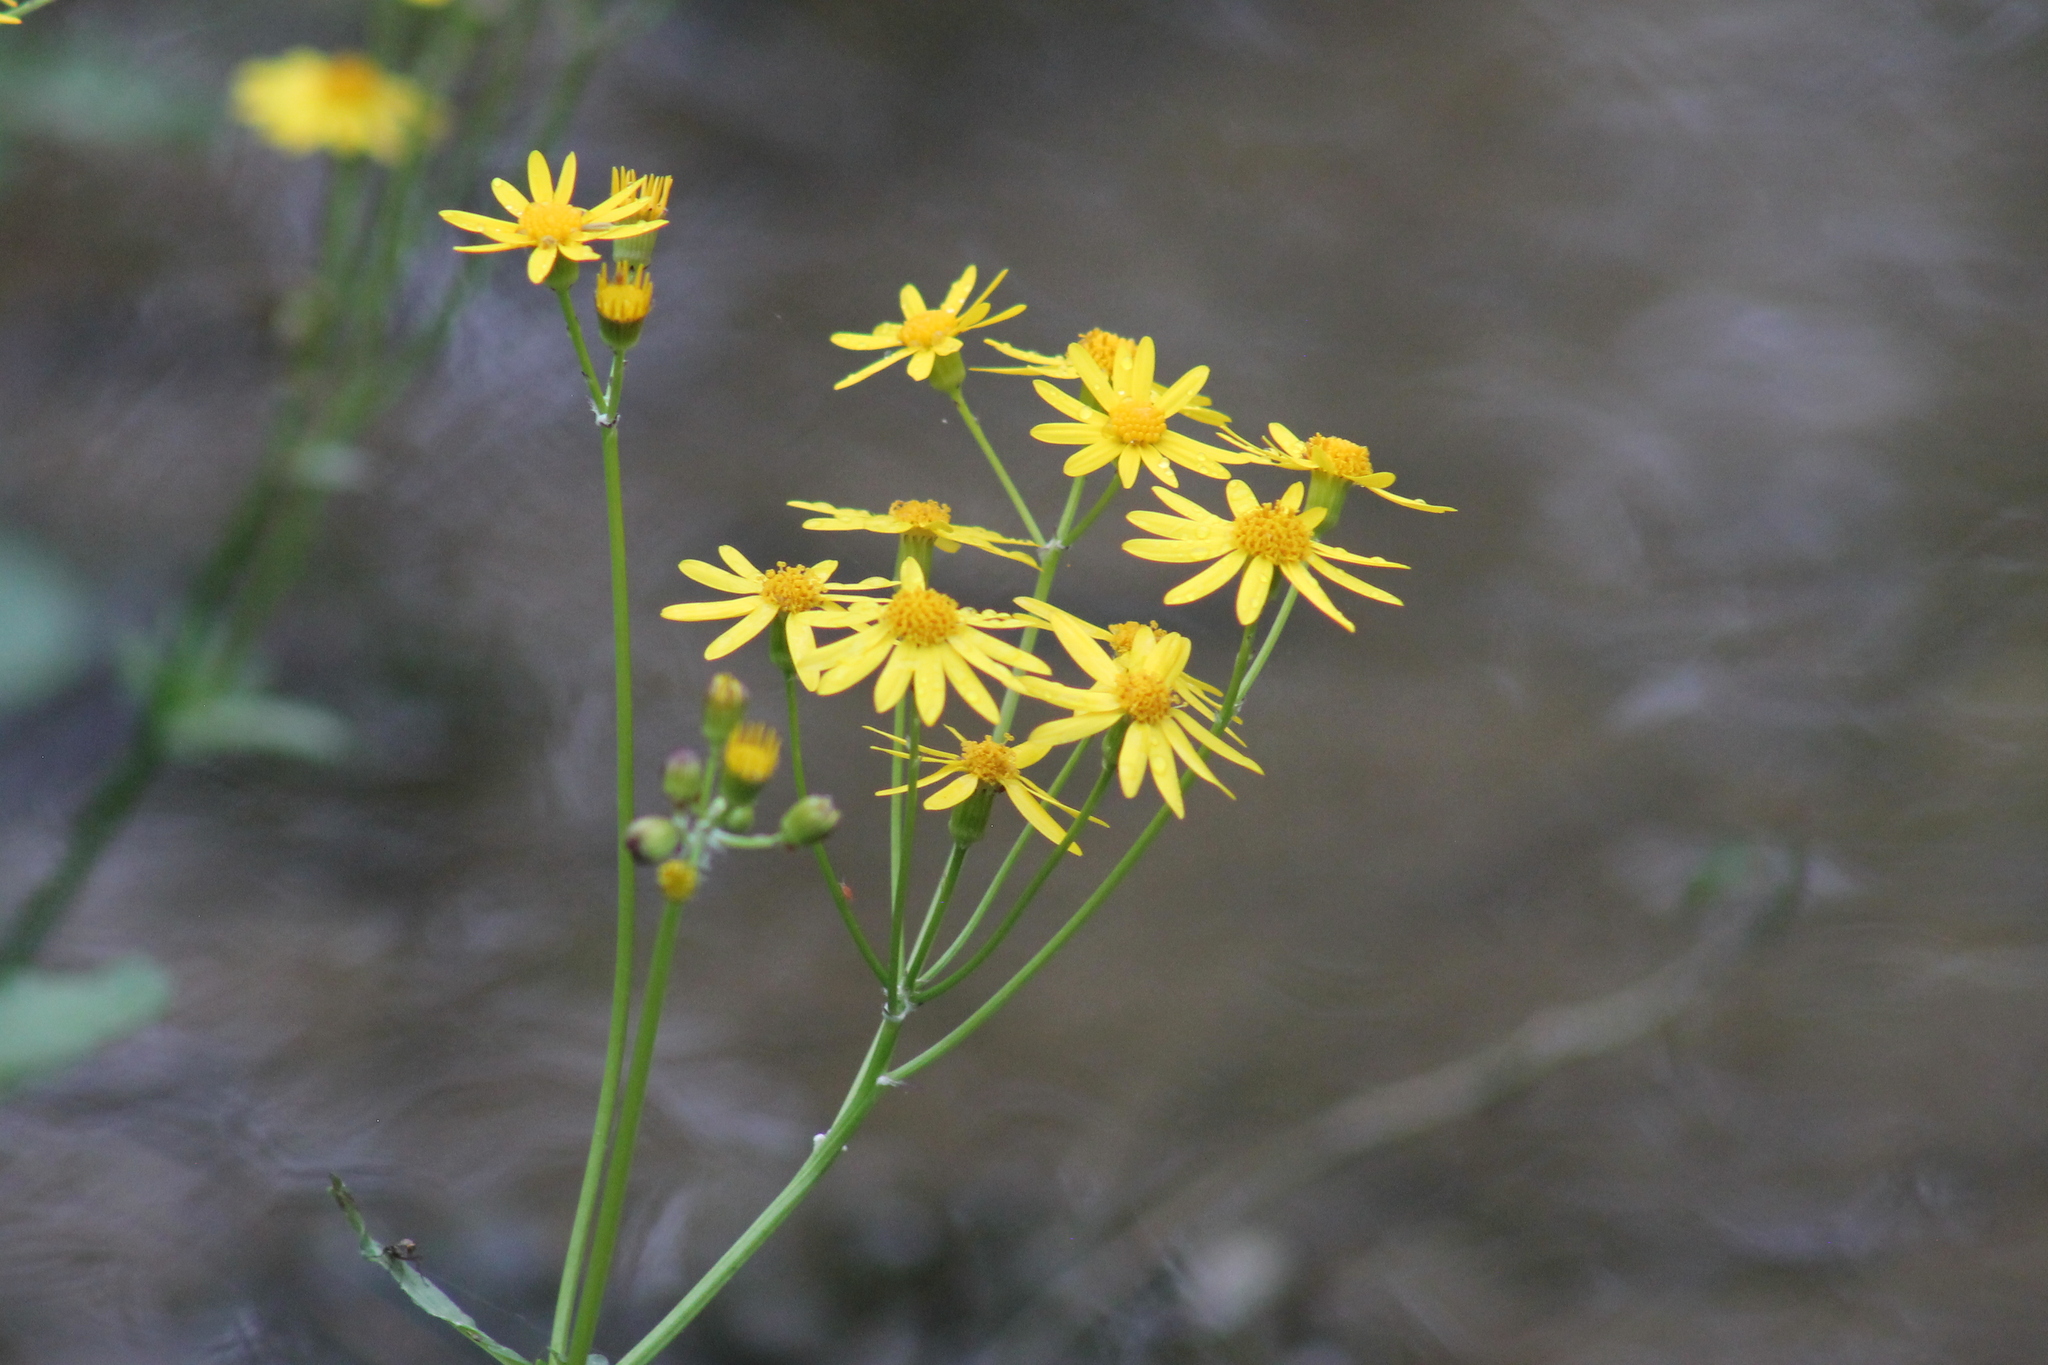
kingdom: Plantae
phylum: Tracheophyta
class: Magnoliopsida
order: Asterales
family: Asteraceae
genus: Packera
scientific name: Packera aurea
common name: Golden groundsel
